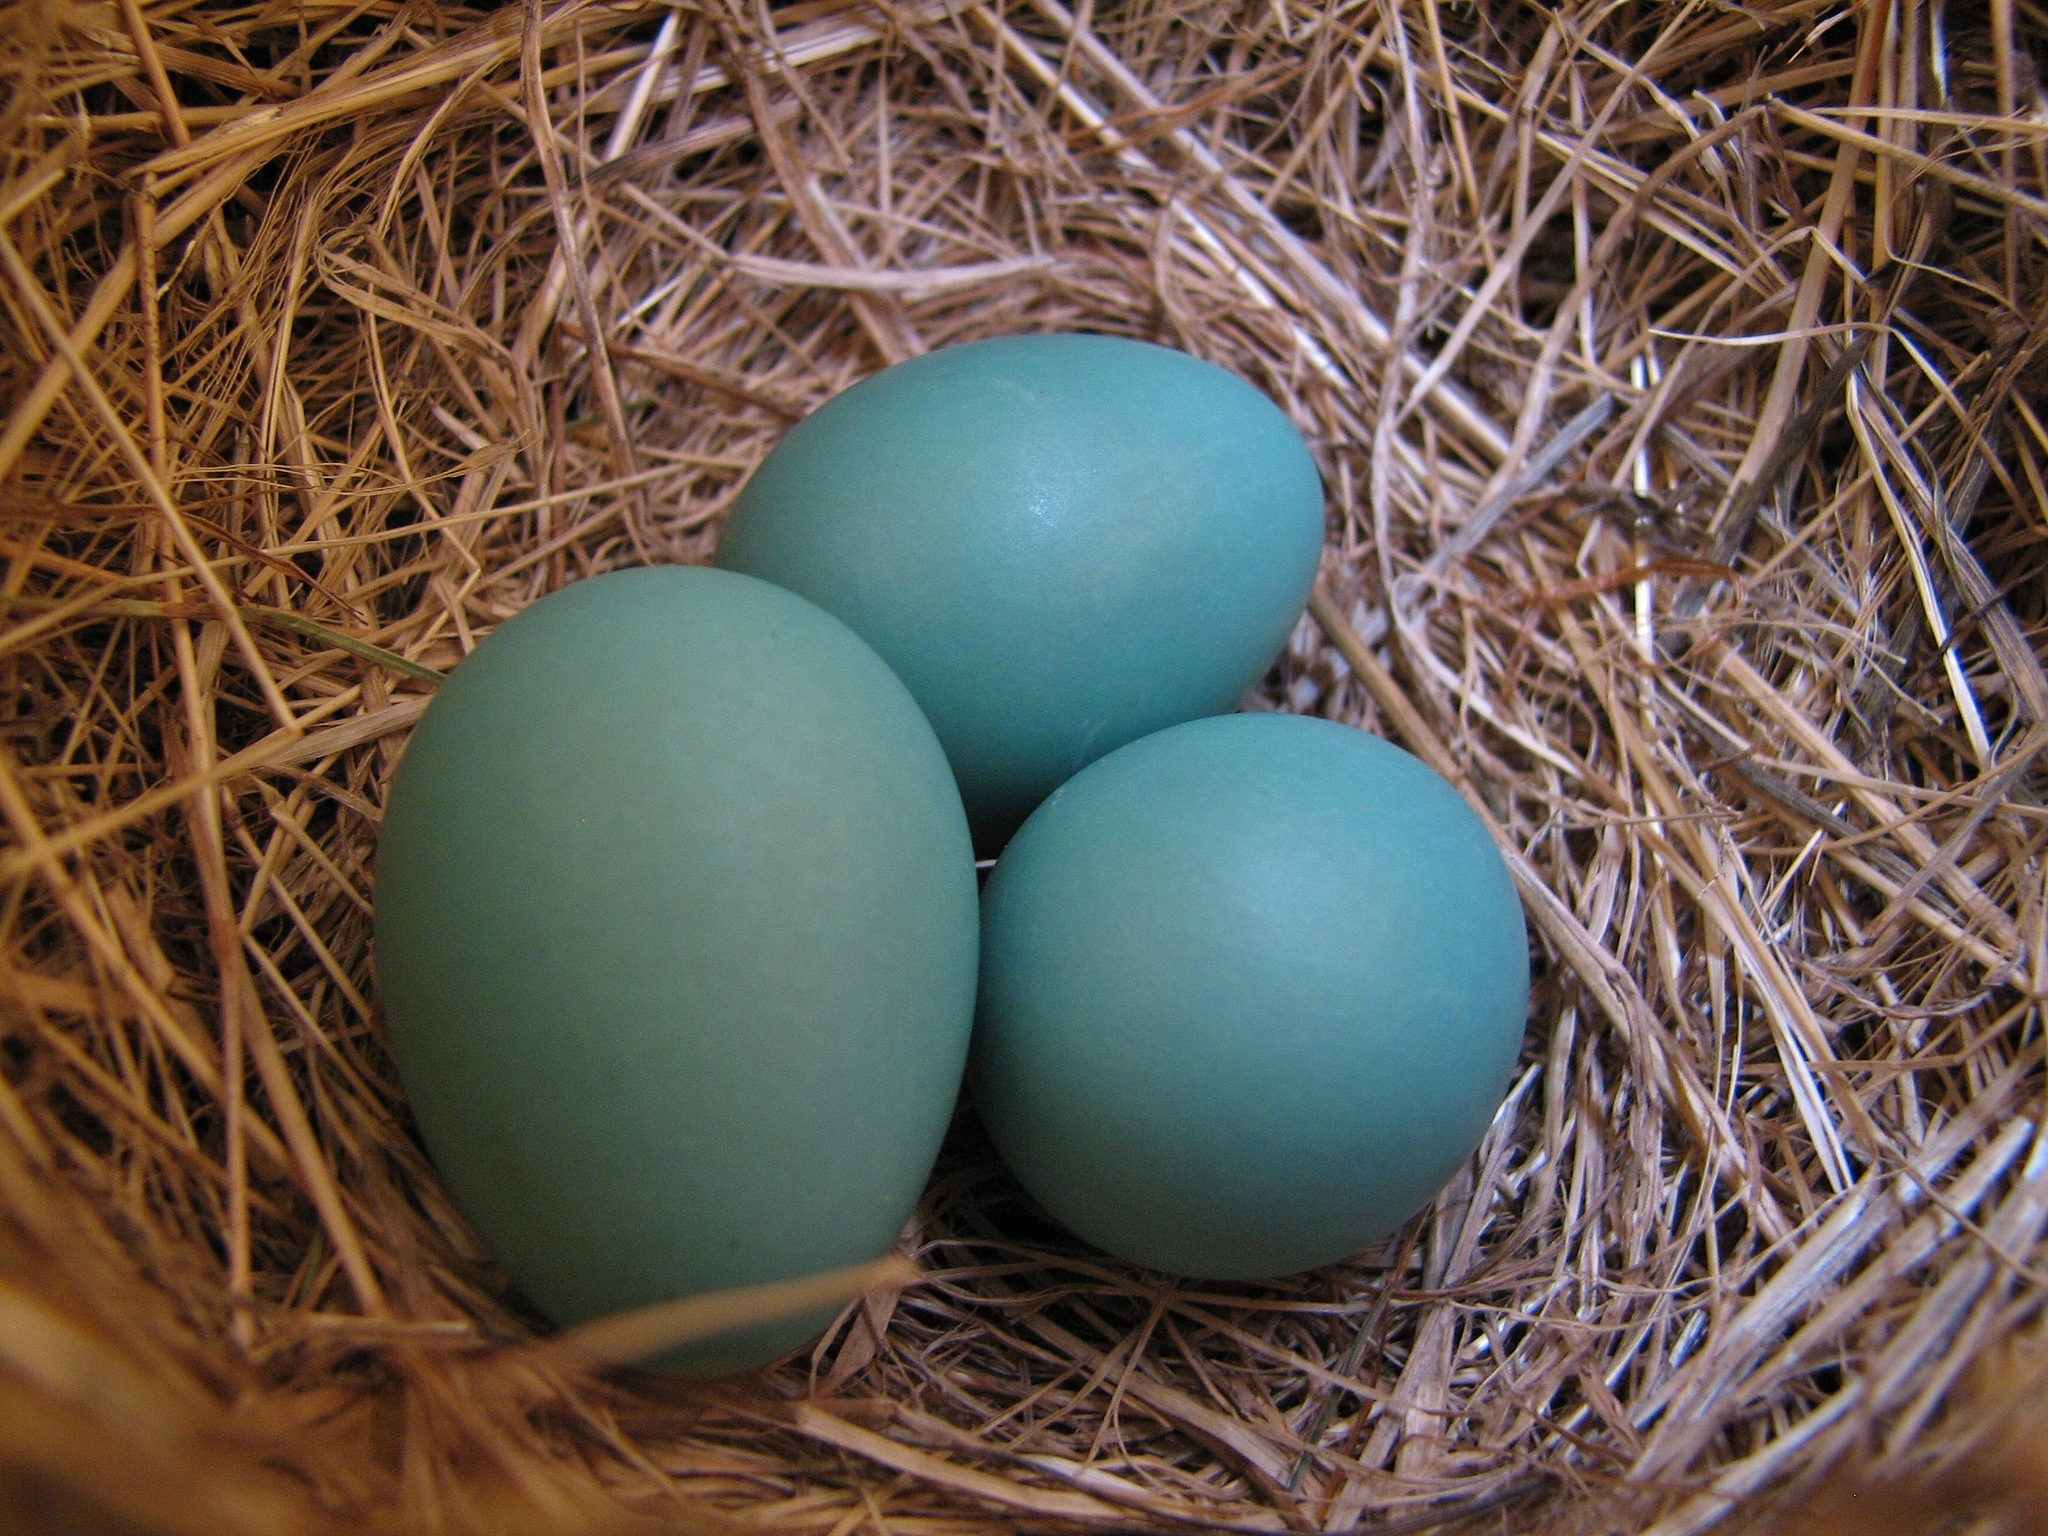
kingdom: Animalia
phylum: Chordata
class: Aves
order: Passeriformes
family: Turdidae
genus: Turdus
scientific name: Turdus migratorius
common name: American robin
